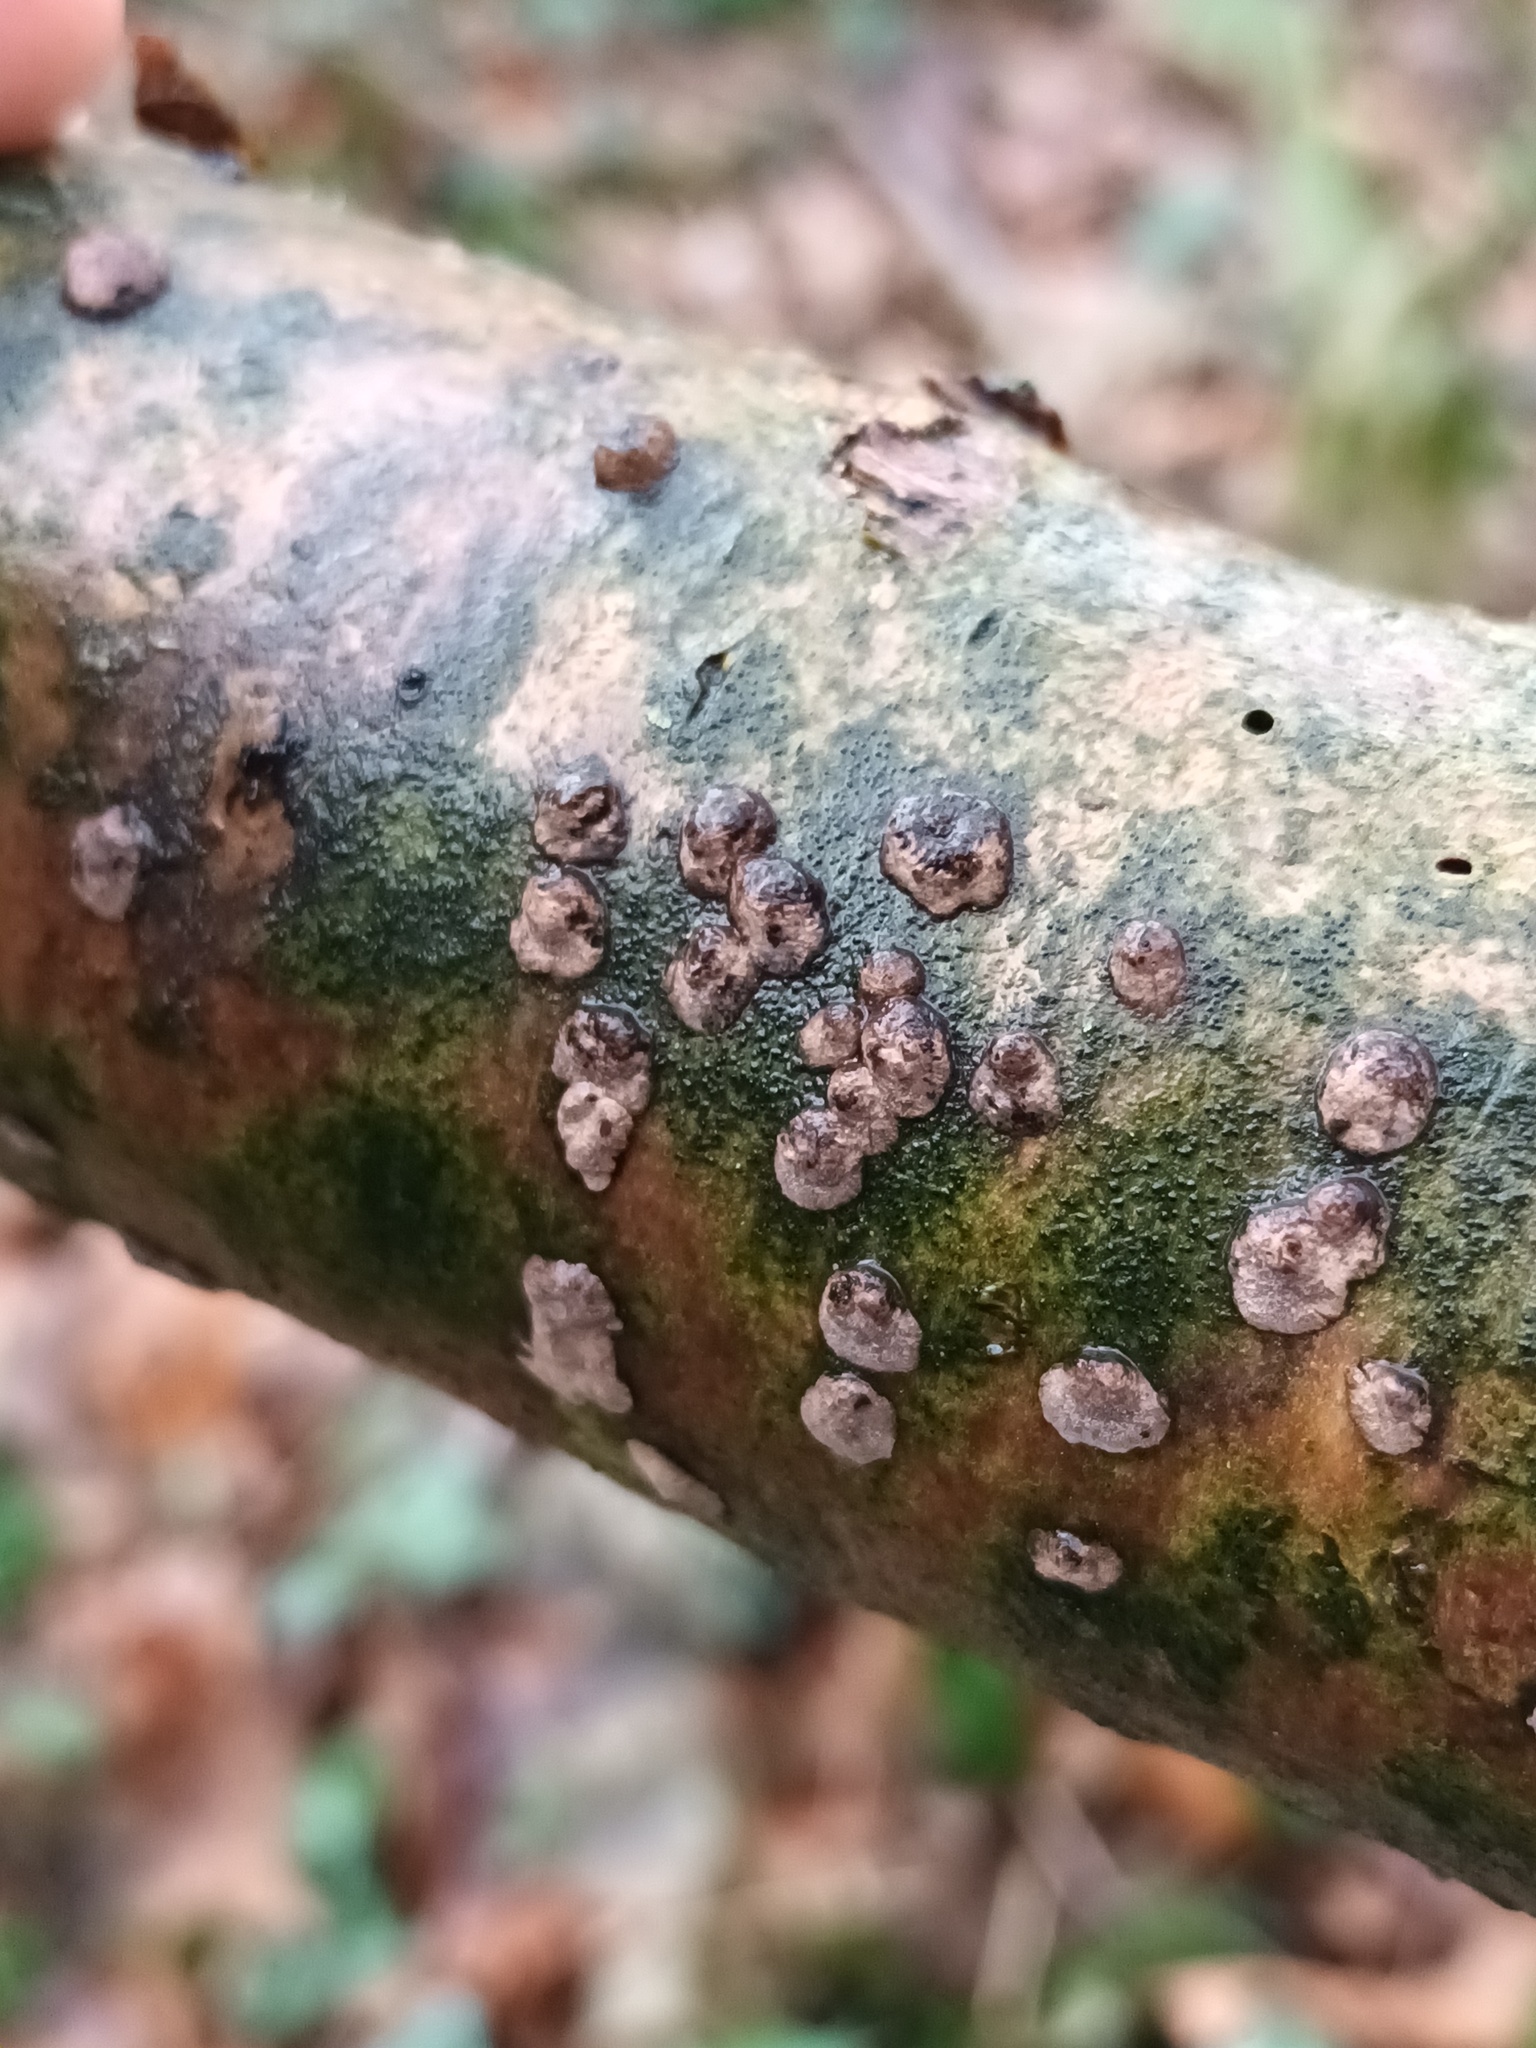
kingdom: Fungi
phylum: Ascomycota
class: Sordariomycetes
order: Xylariales
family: Hypoxylaceae
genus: Hypoxylon
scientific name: Hypoxylon fuscum
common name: Hazel woodwart
